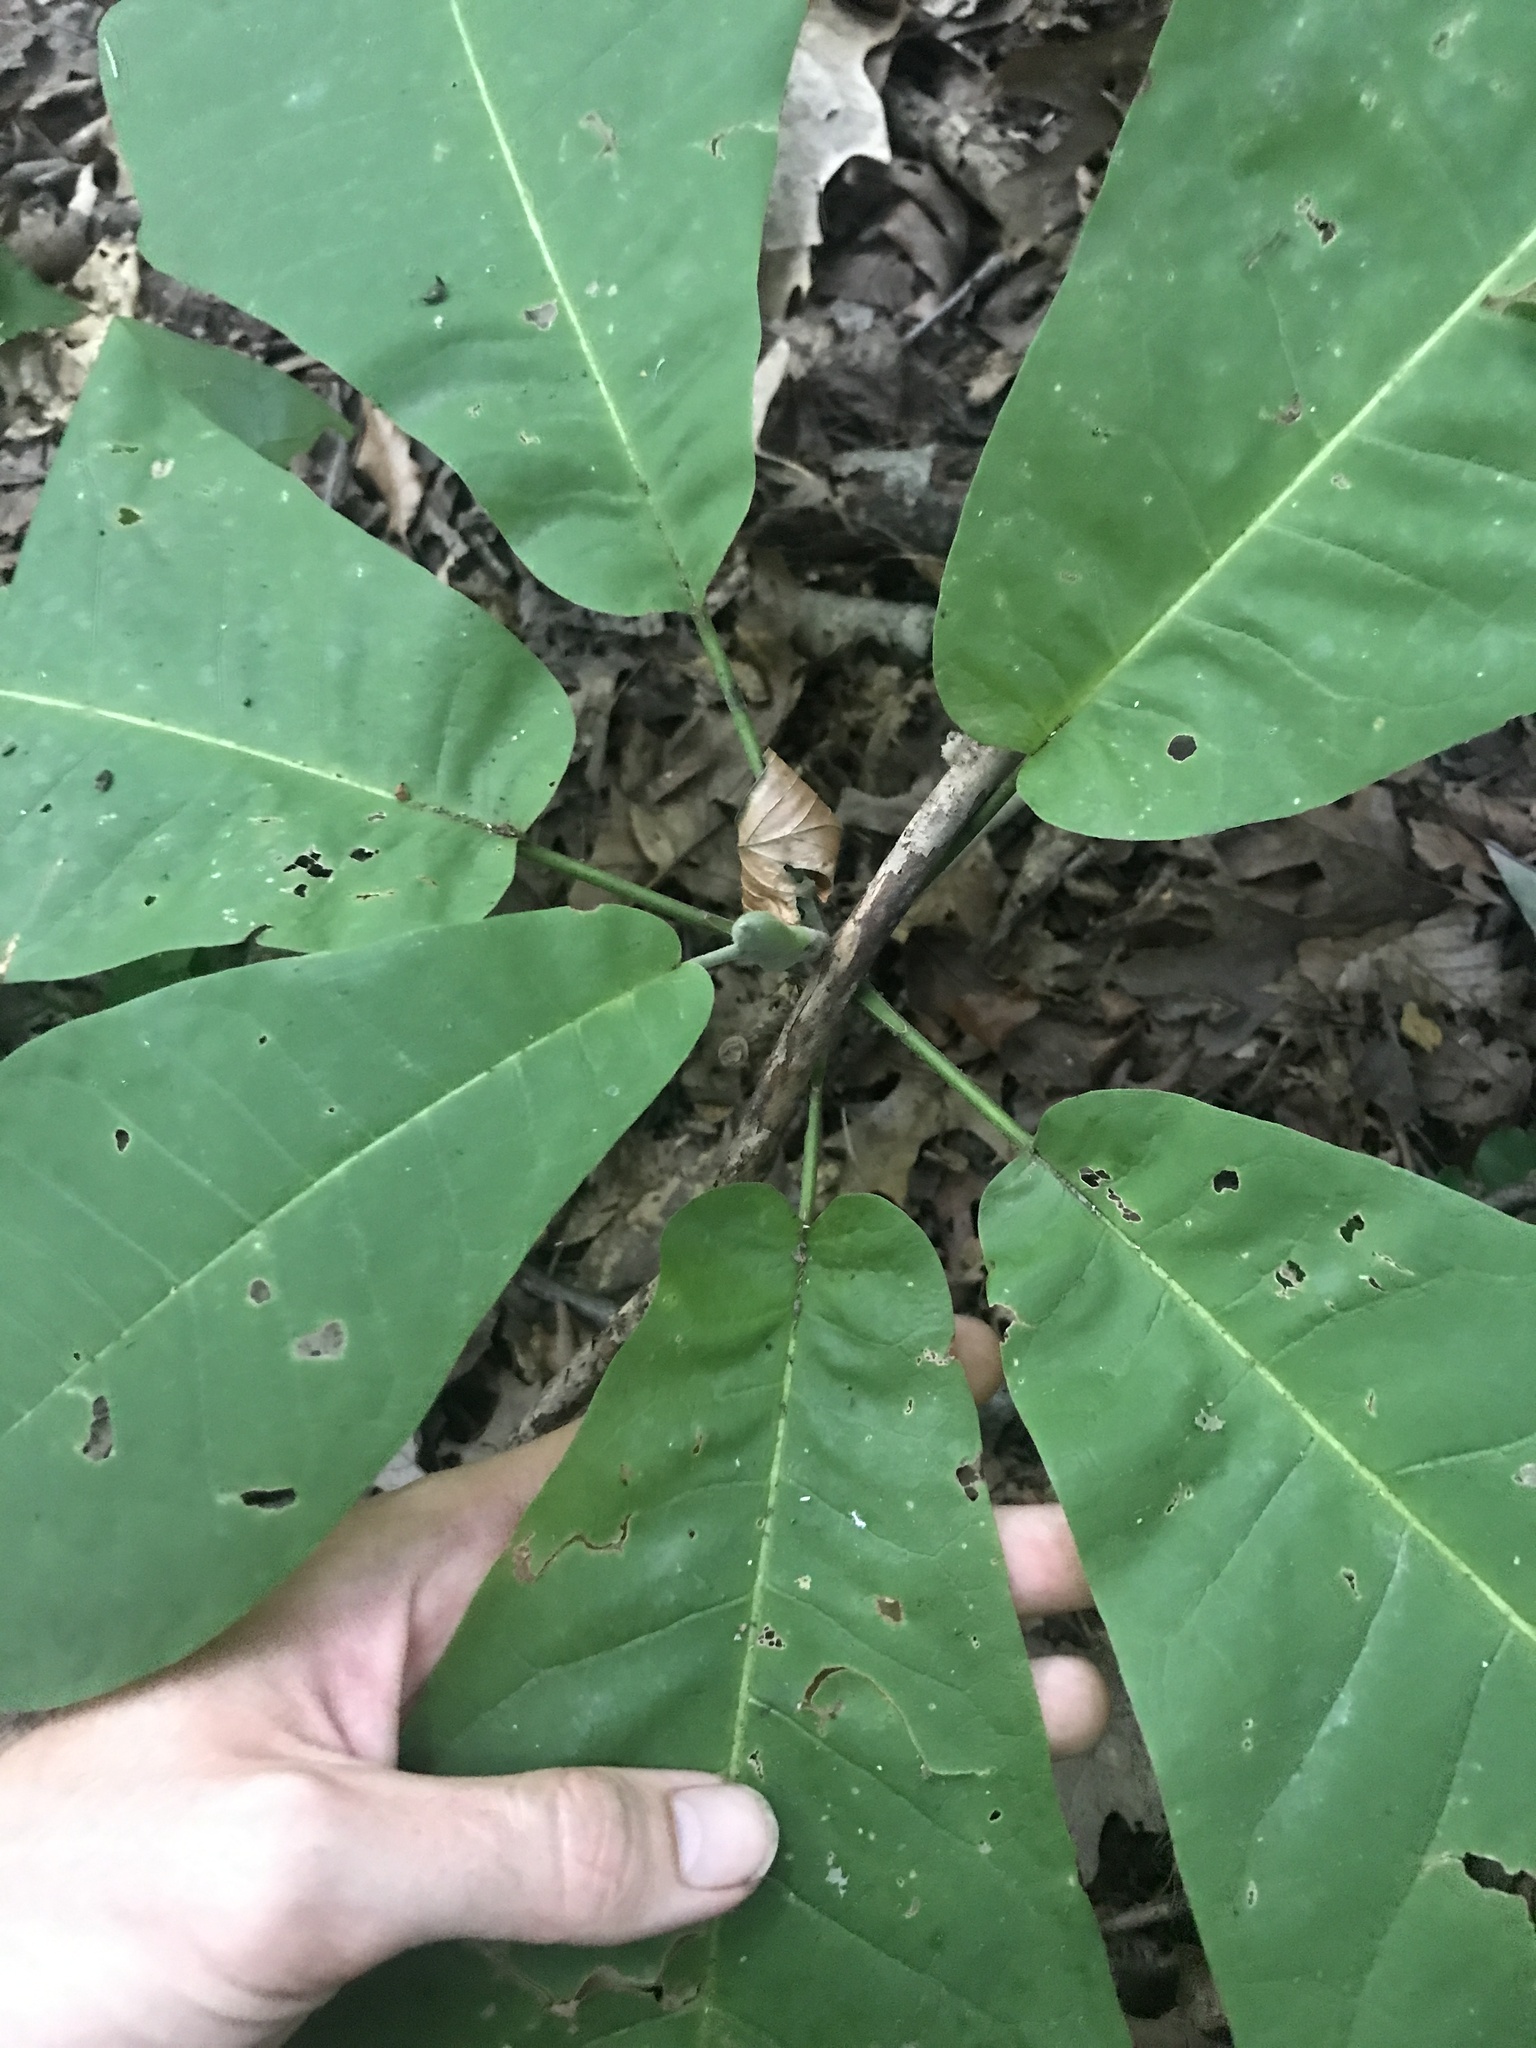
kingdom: Plantae
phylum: Tracheophyta
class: Magnoliopsida
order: Magnoliales
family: Magnoliaceae
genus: Magnolia
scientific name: Magnolia macrophylla
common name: Big-leaf magnolia
